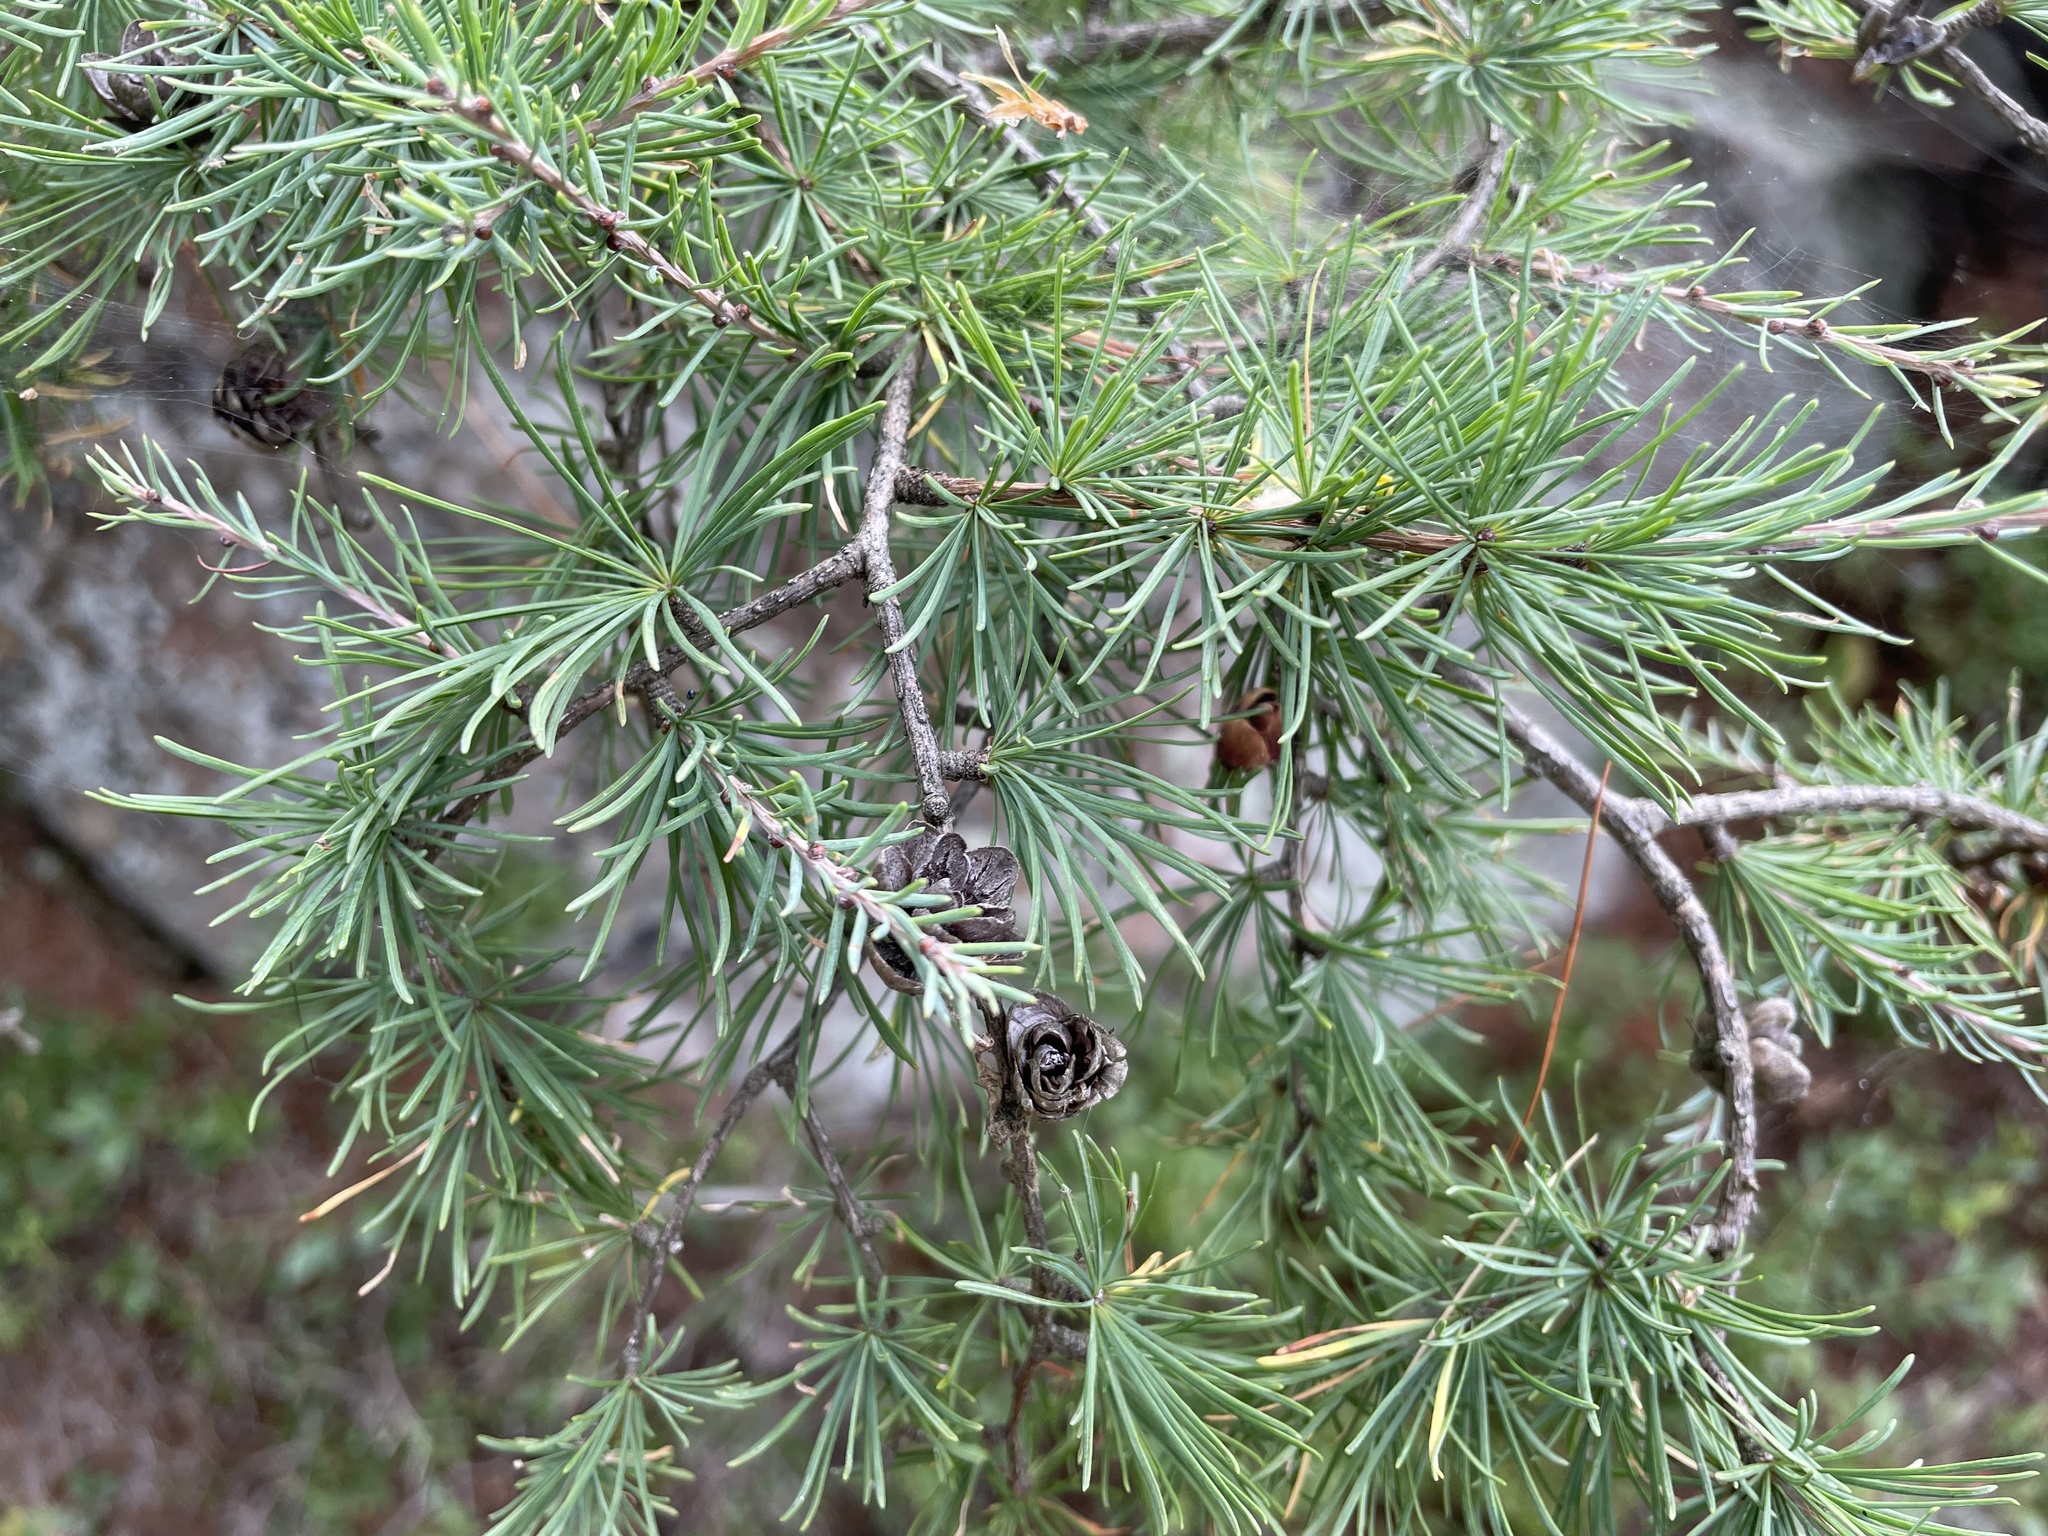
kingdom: Plantae
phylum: Tracheophyta
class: Pinopsida
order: Pinales
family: Pinaceae
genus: Larix
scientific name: Larix laricina
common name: American larch
